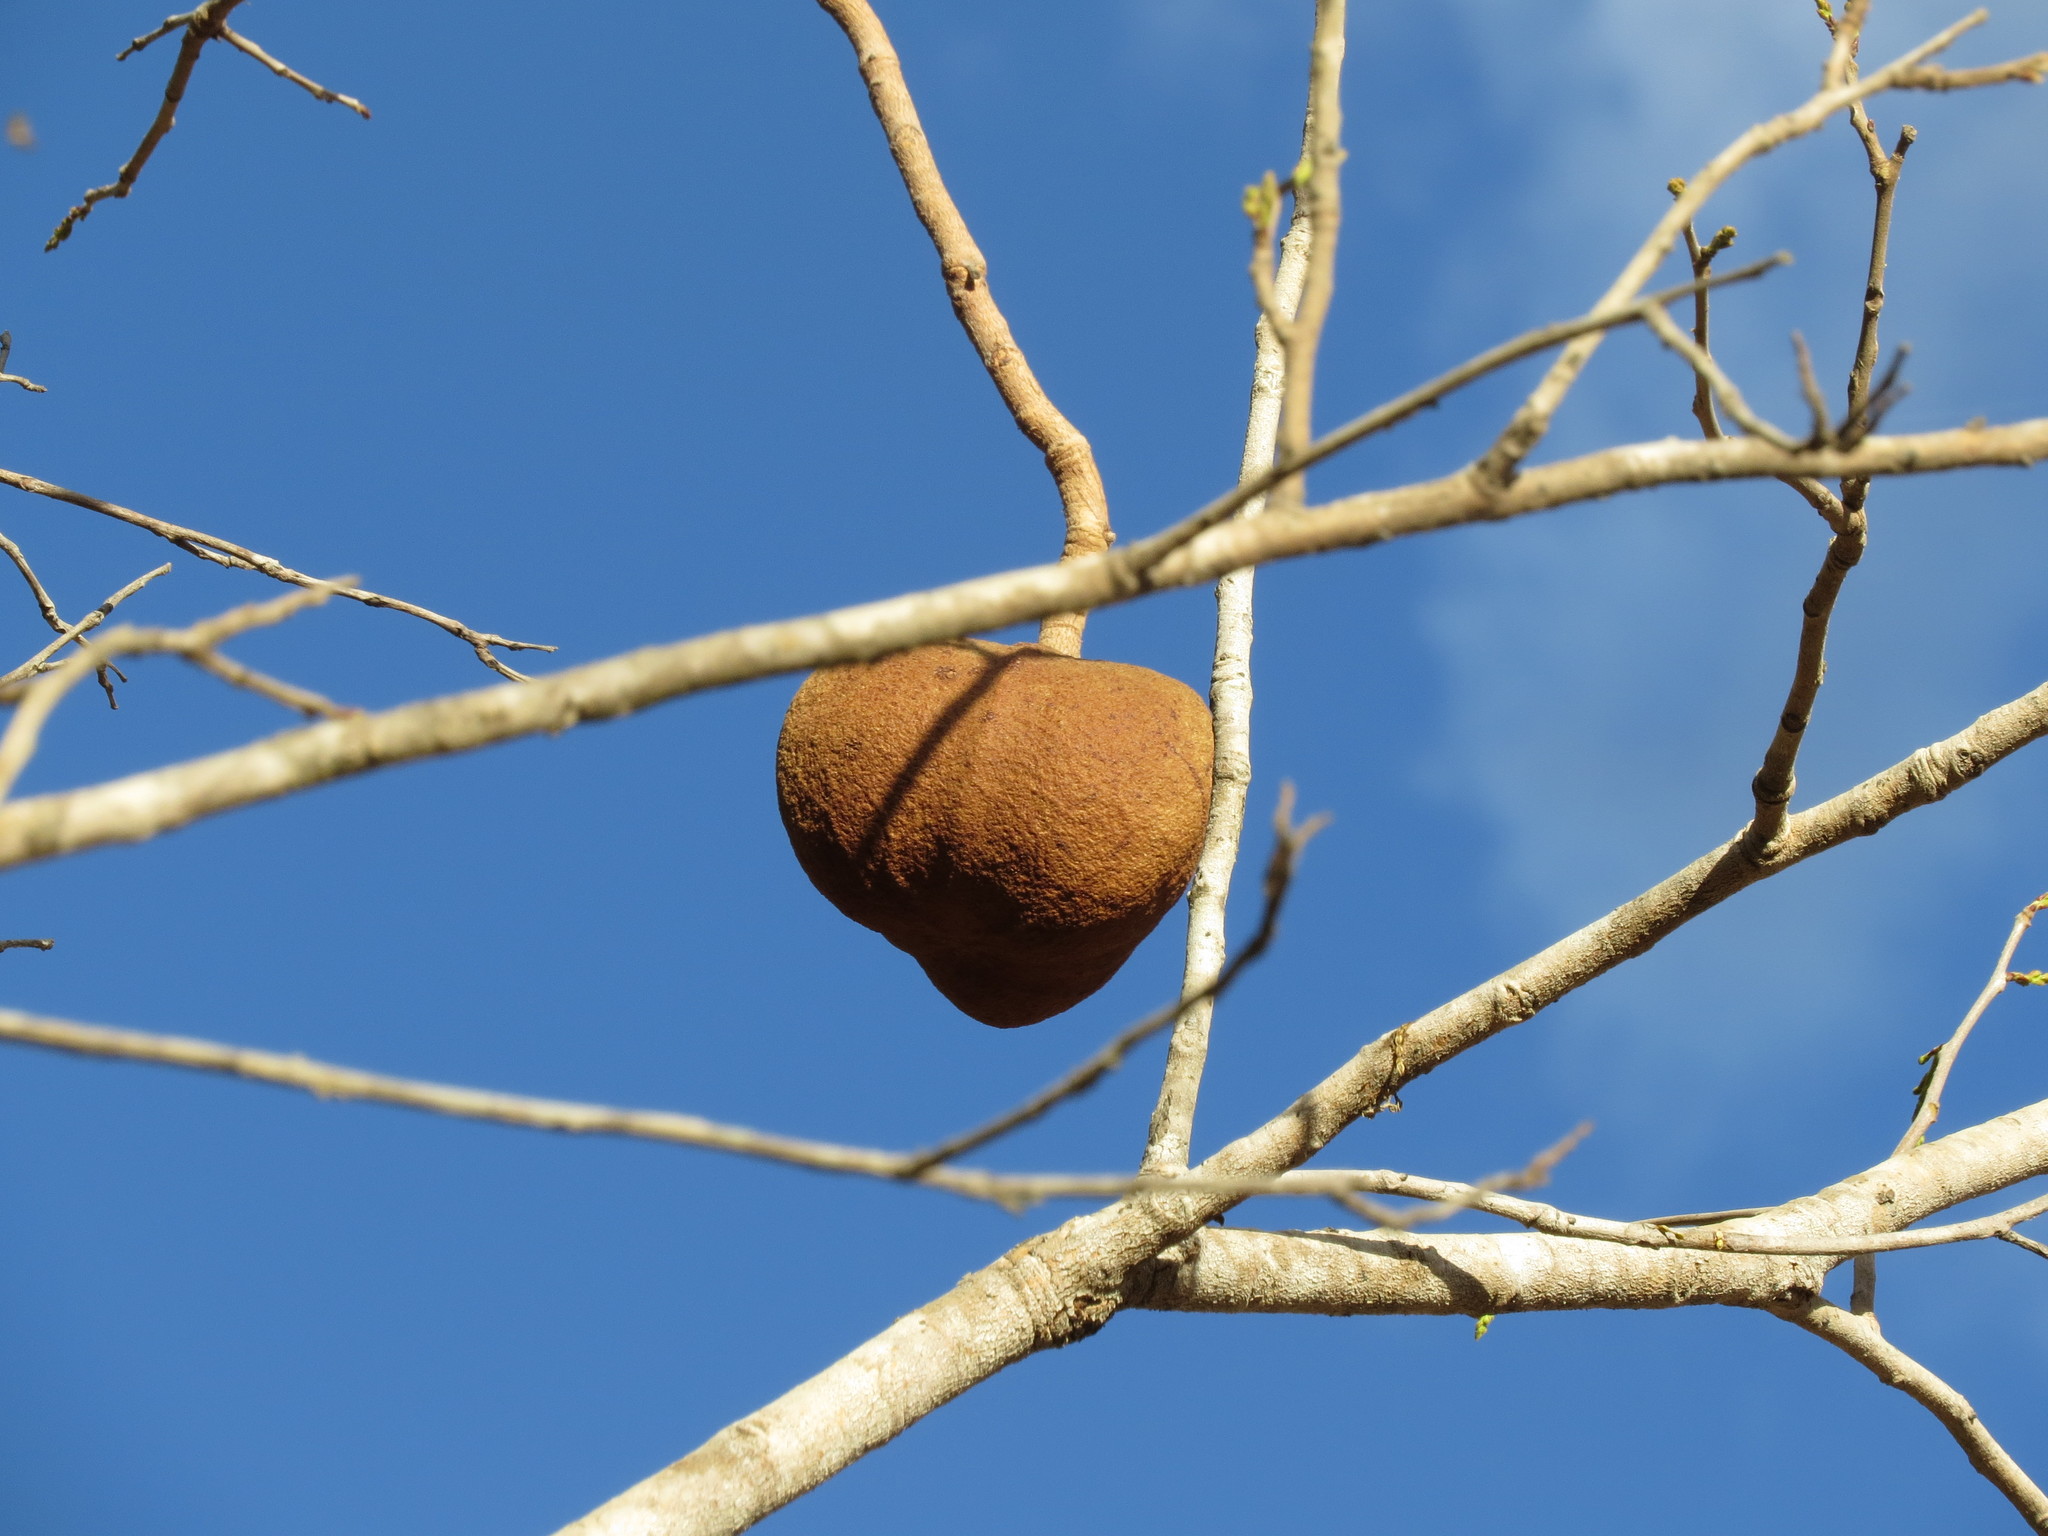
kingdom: Plantae
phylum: Tracheophyta
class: Magnoliopsida
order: Sapindales
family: Sapindaceae
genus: Magonia
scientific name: Magonia pubescens
